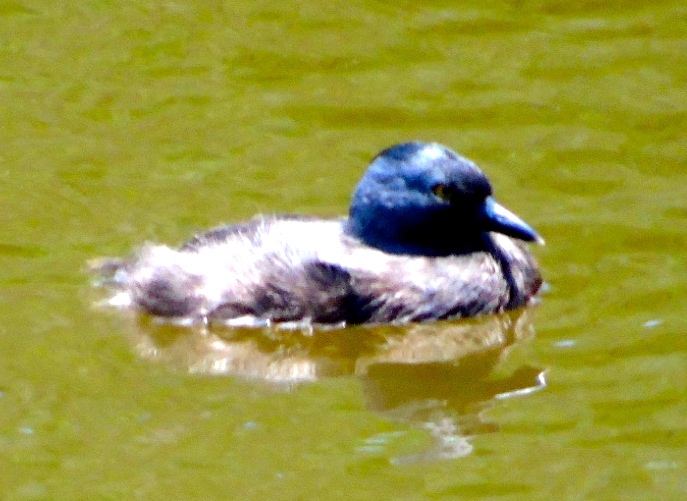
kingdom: Animalia
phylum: Chordata
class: Aves
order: Podicipediformes
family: Podicipedidae
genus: Tachybaptus
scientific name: Tachybaptus dominicus
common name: Least grebe
